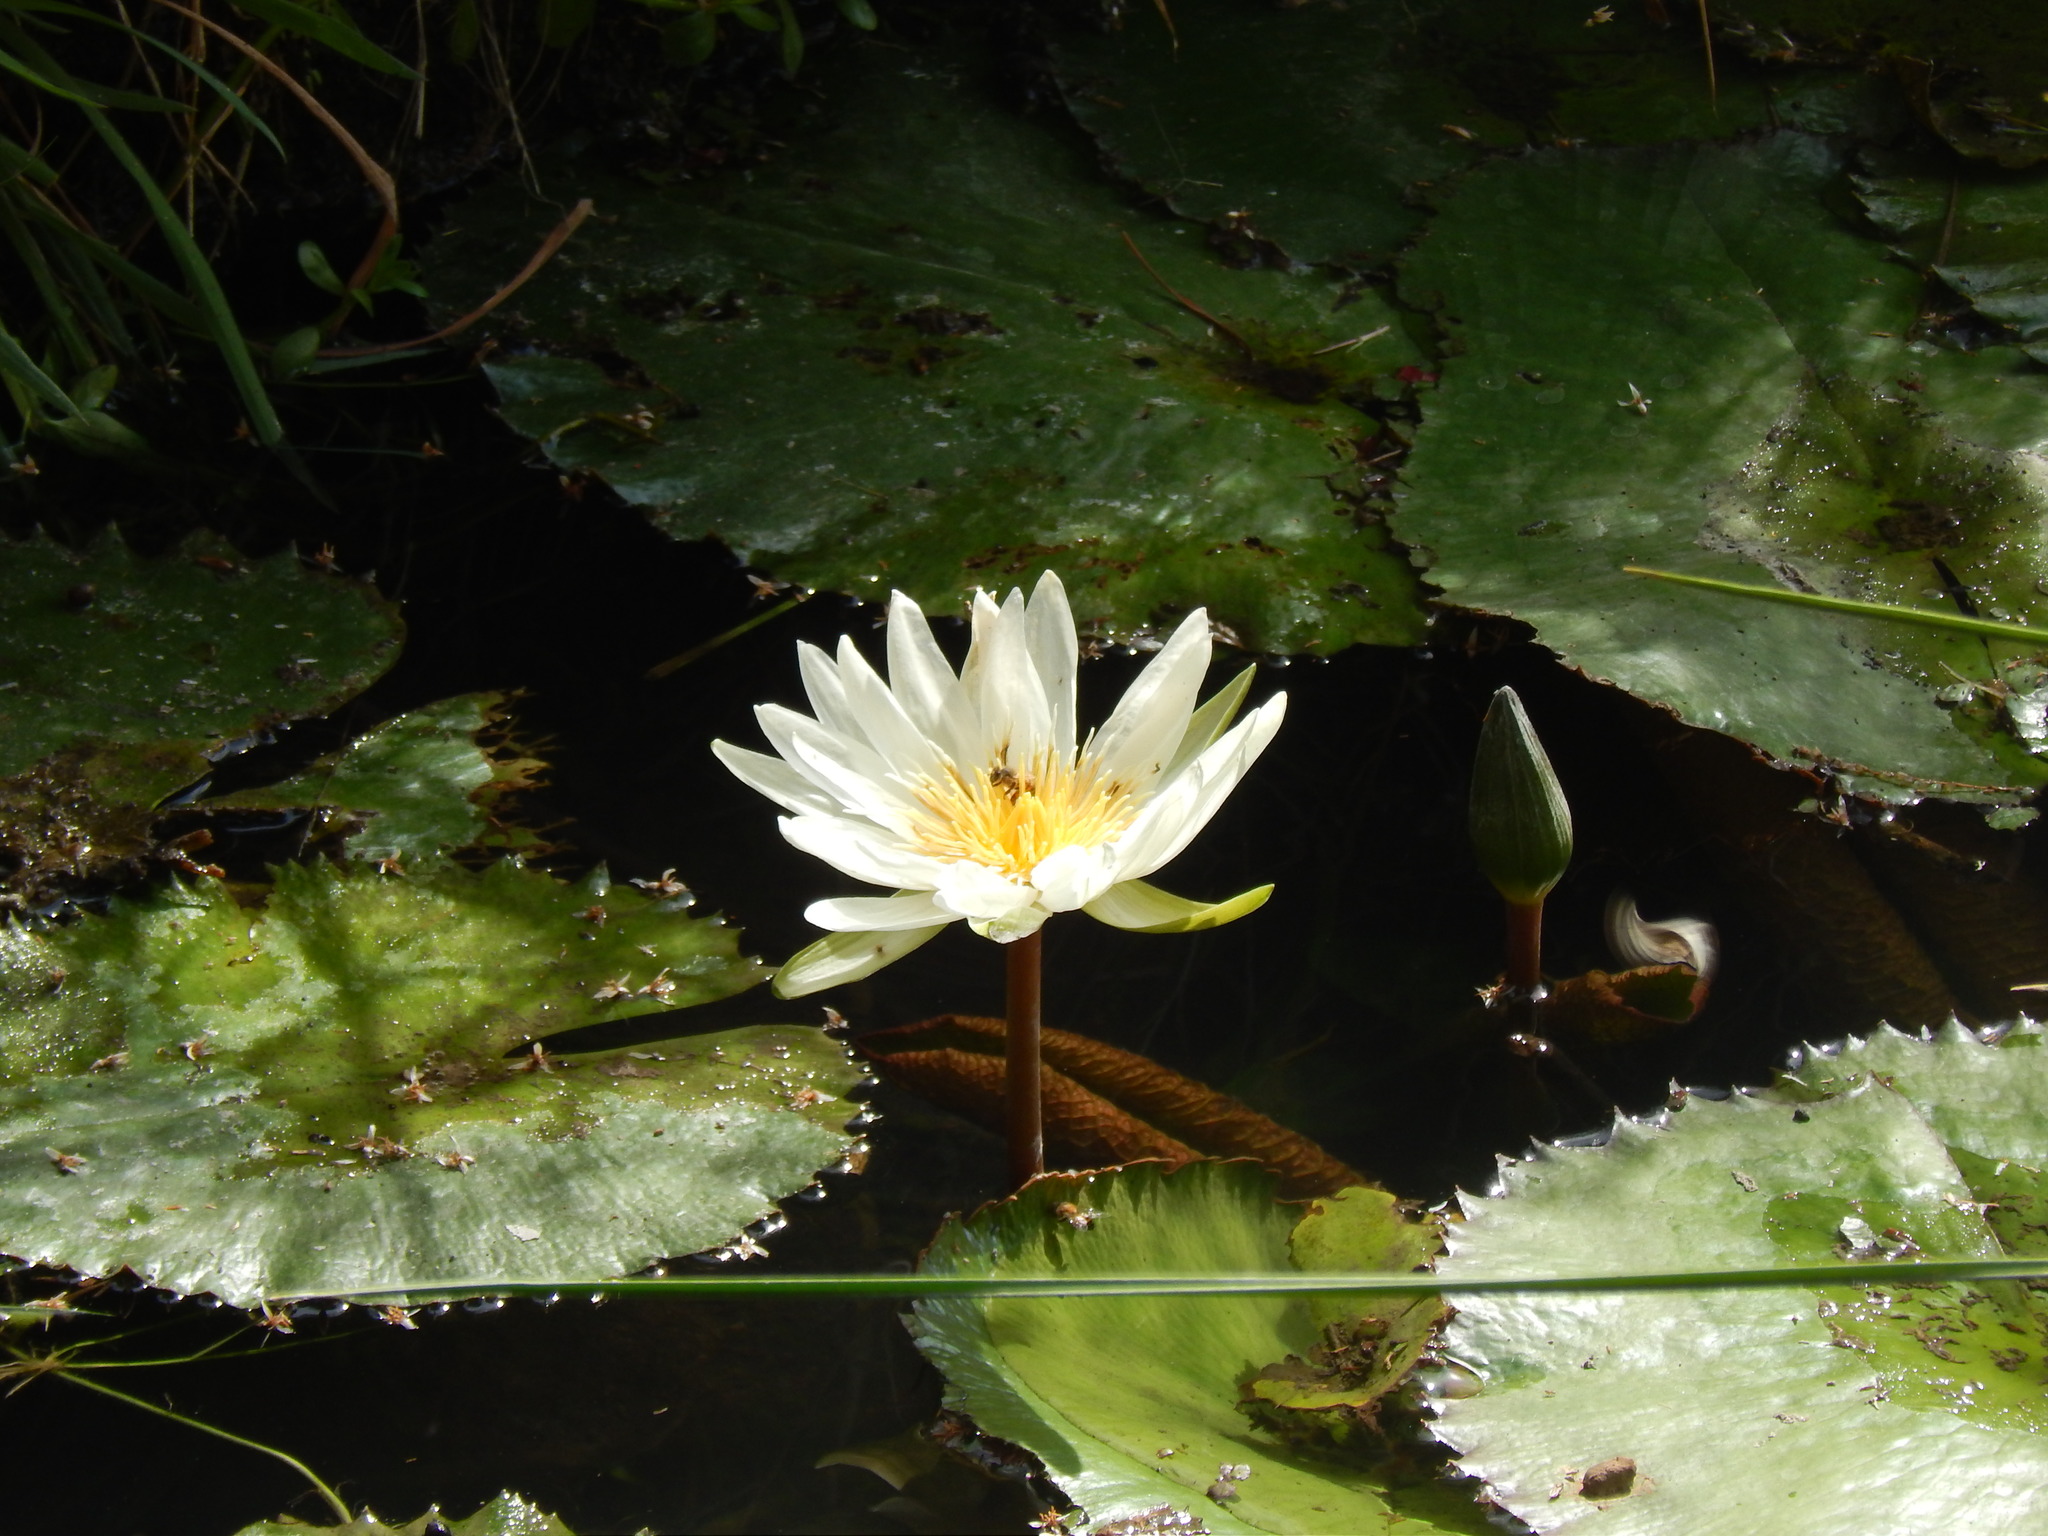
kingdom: Plantae
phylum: Tracheophyta
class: Magnoliopsida
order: Nymphaeales
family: Nymphaeaceae
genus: Nymphaea
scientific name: Nymphaea ampla
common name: Dotleaf waterlily
